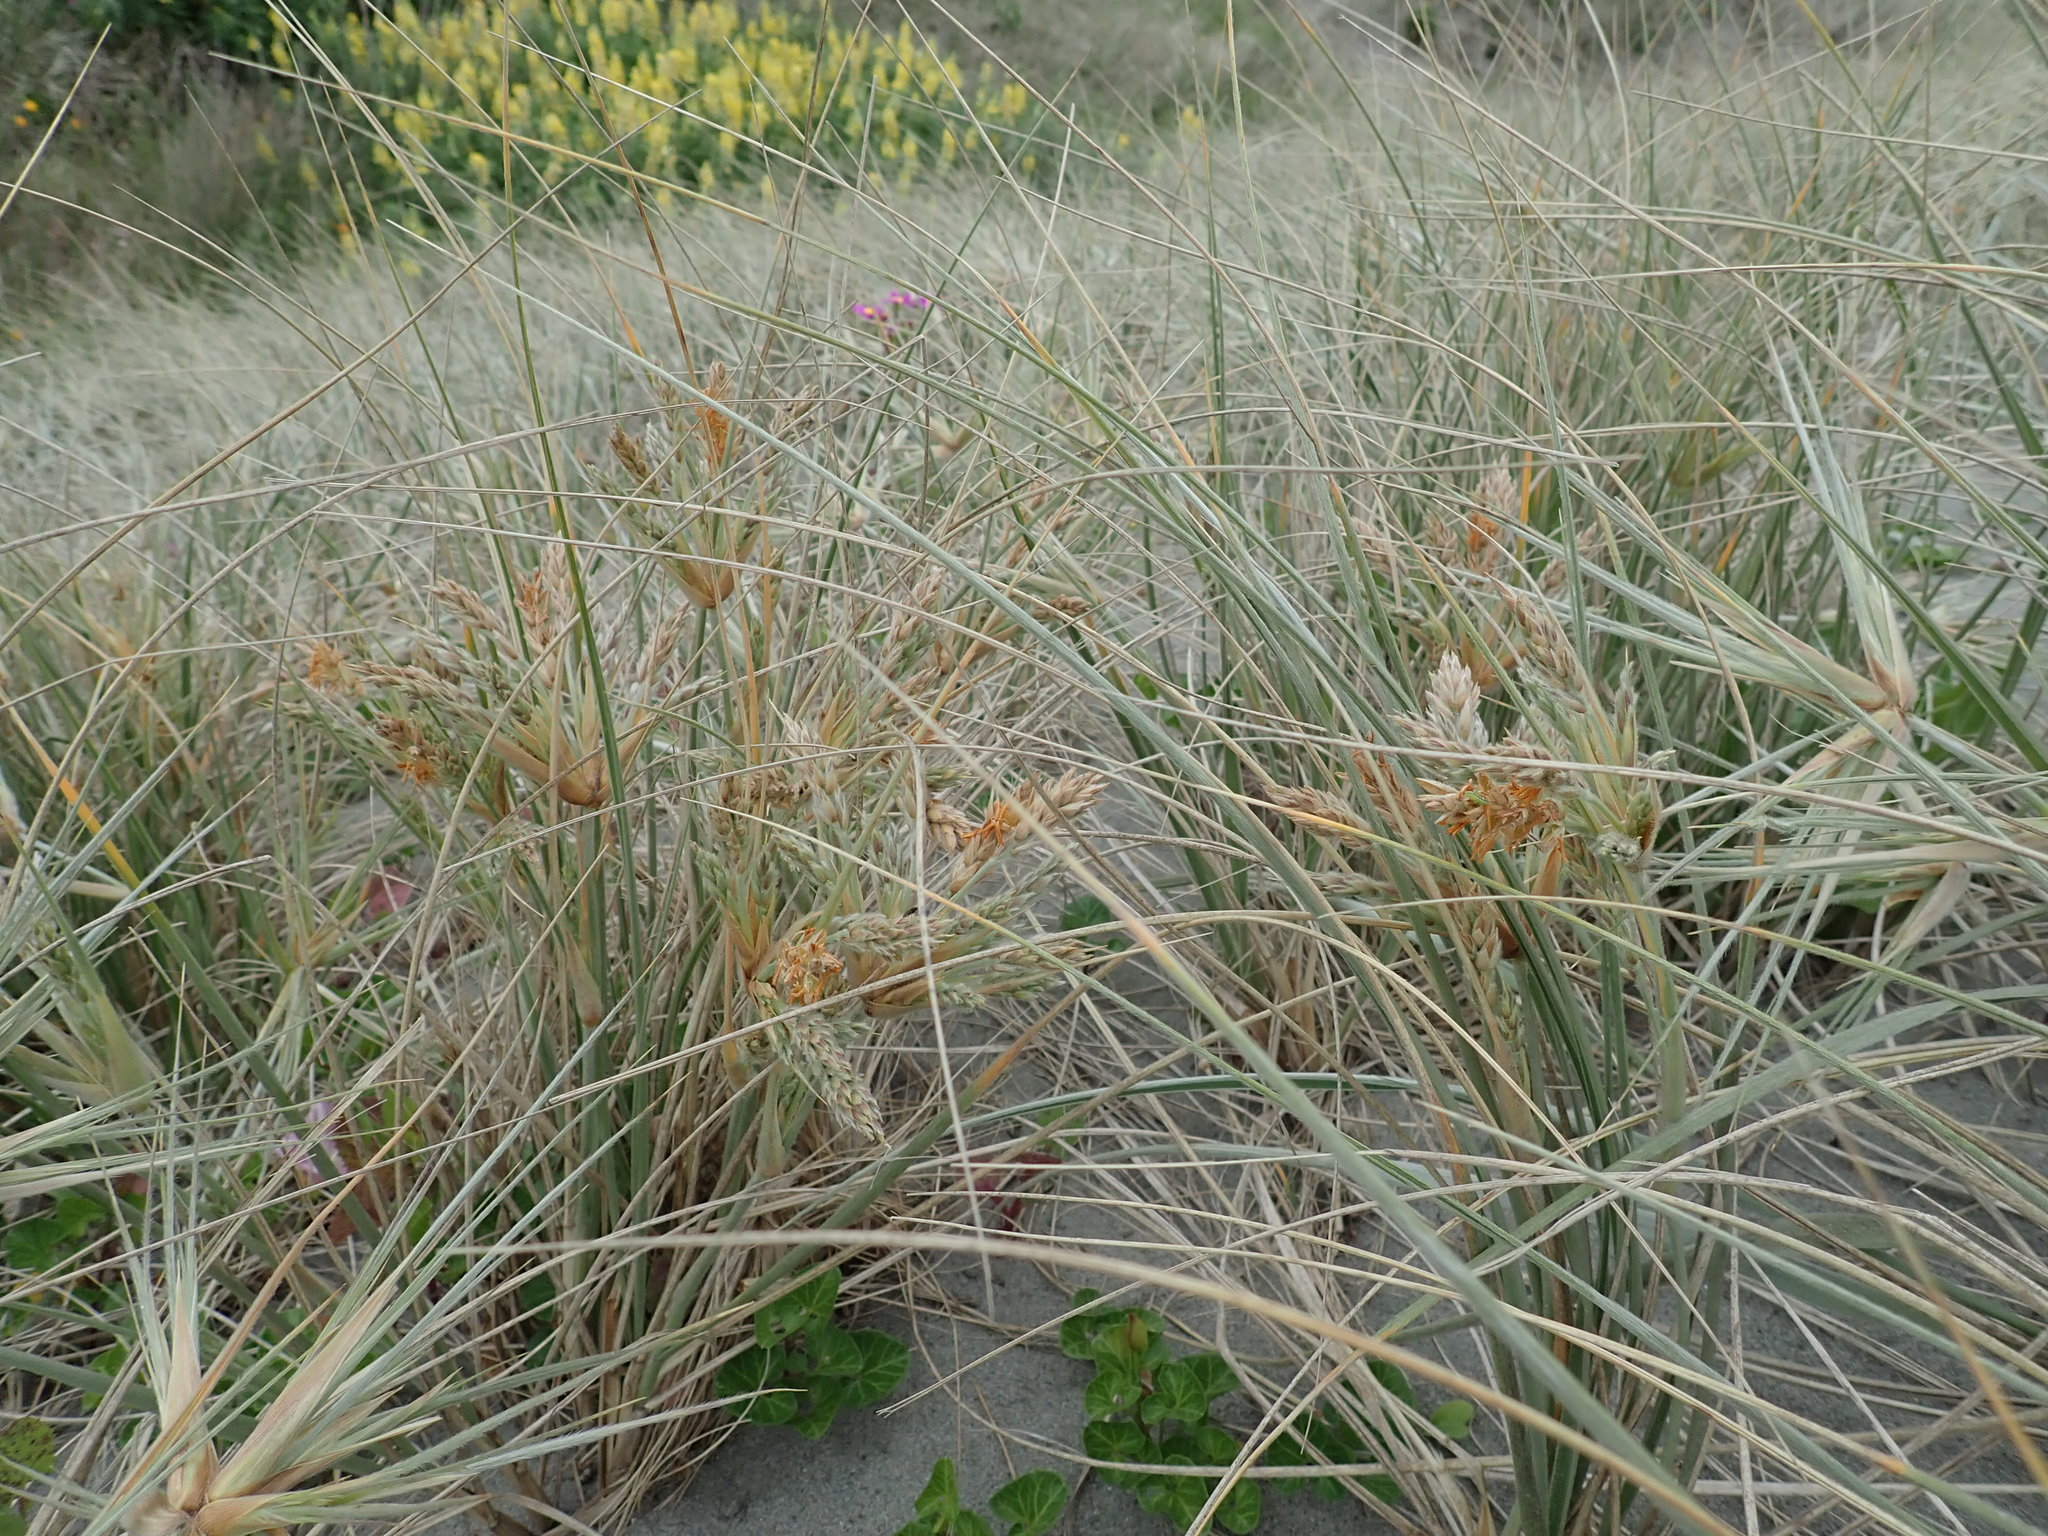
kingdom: Plantae
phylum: Tracheophyta
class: Liliopsida
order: Poales
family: Poaceae
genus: Spinifex
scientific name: Spinifex sericeus
